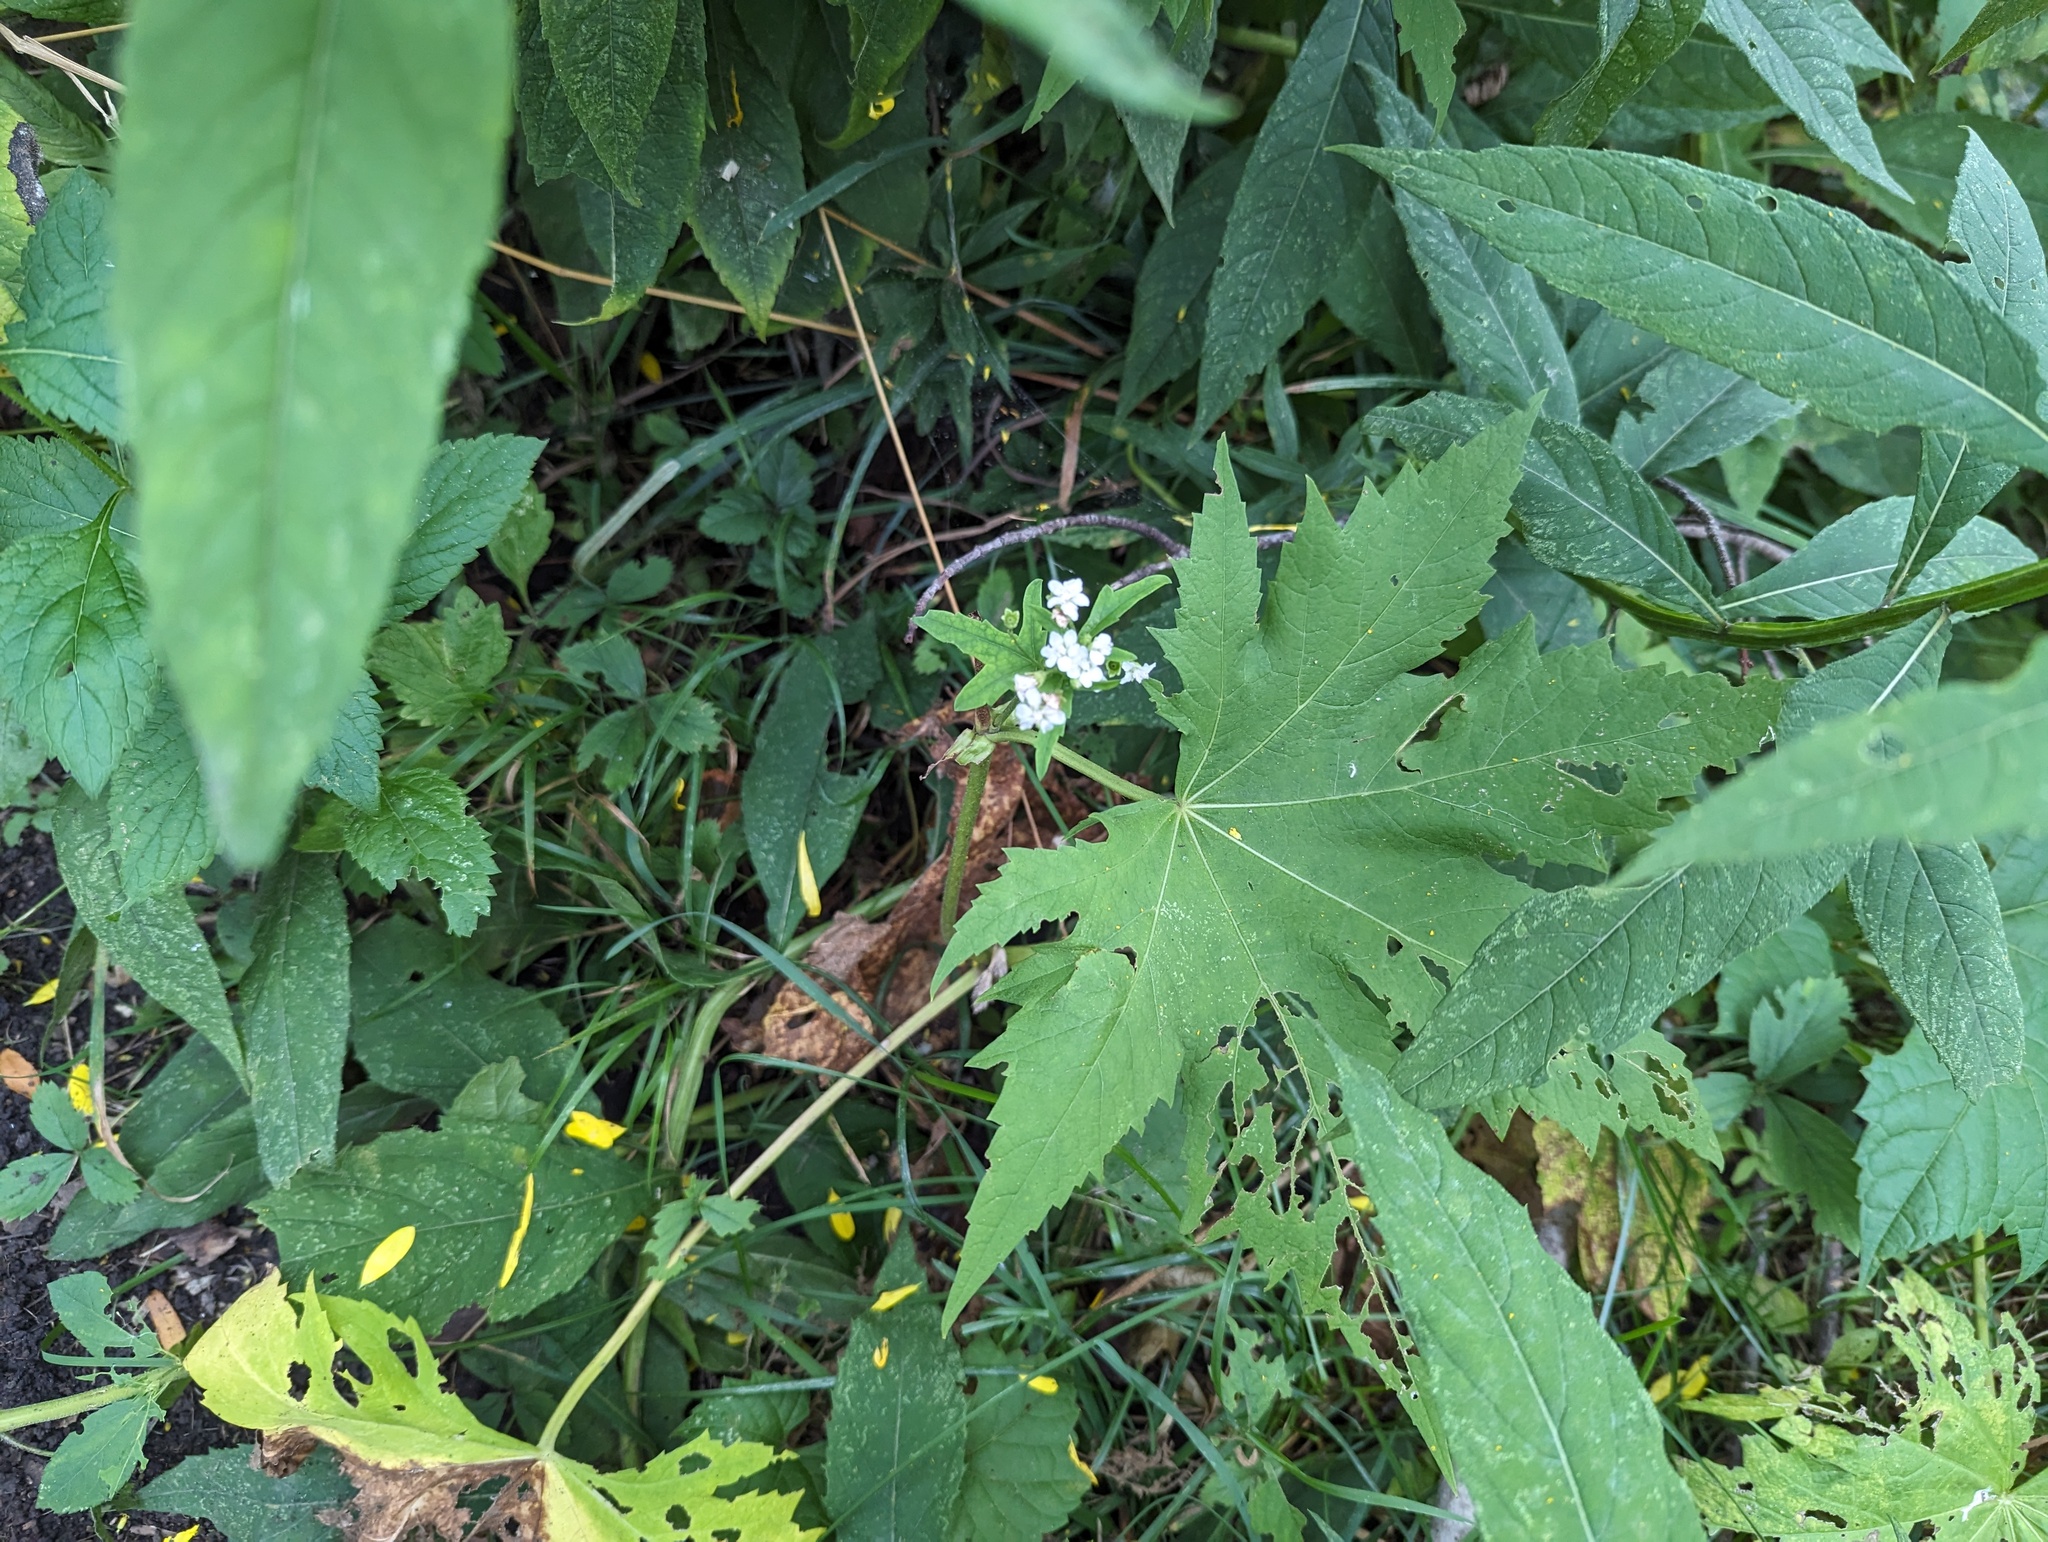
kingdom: Plantae
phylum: Tracheophyta
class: Magnoliopsida
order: Malvales
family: Malvaceae
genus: Napaea
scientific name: Napaea dioica
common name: Glade-mallow
